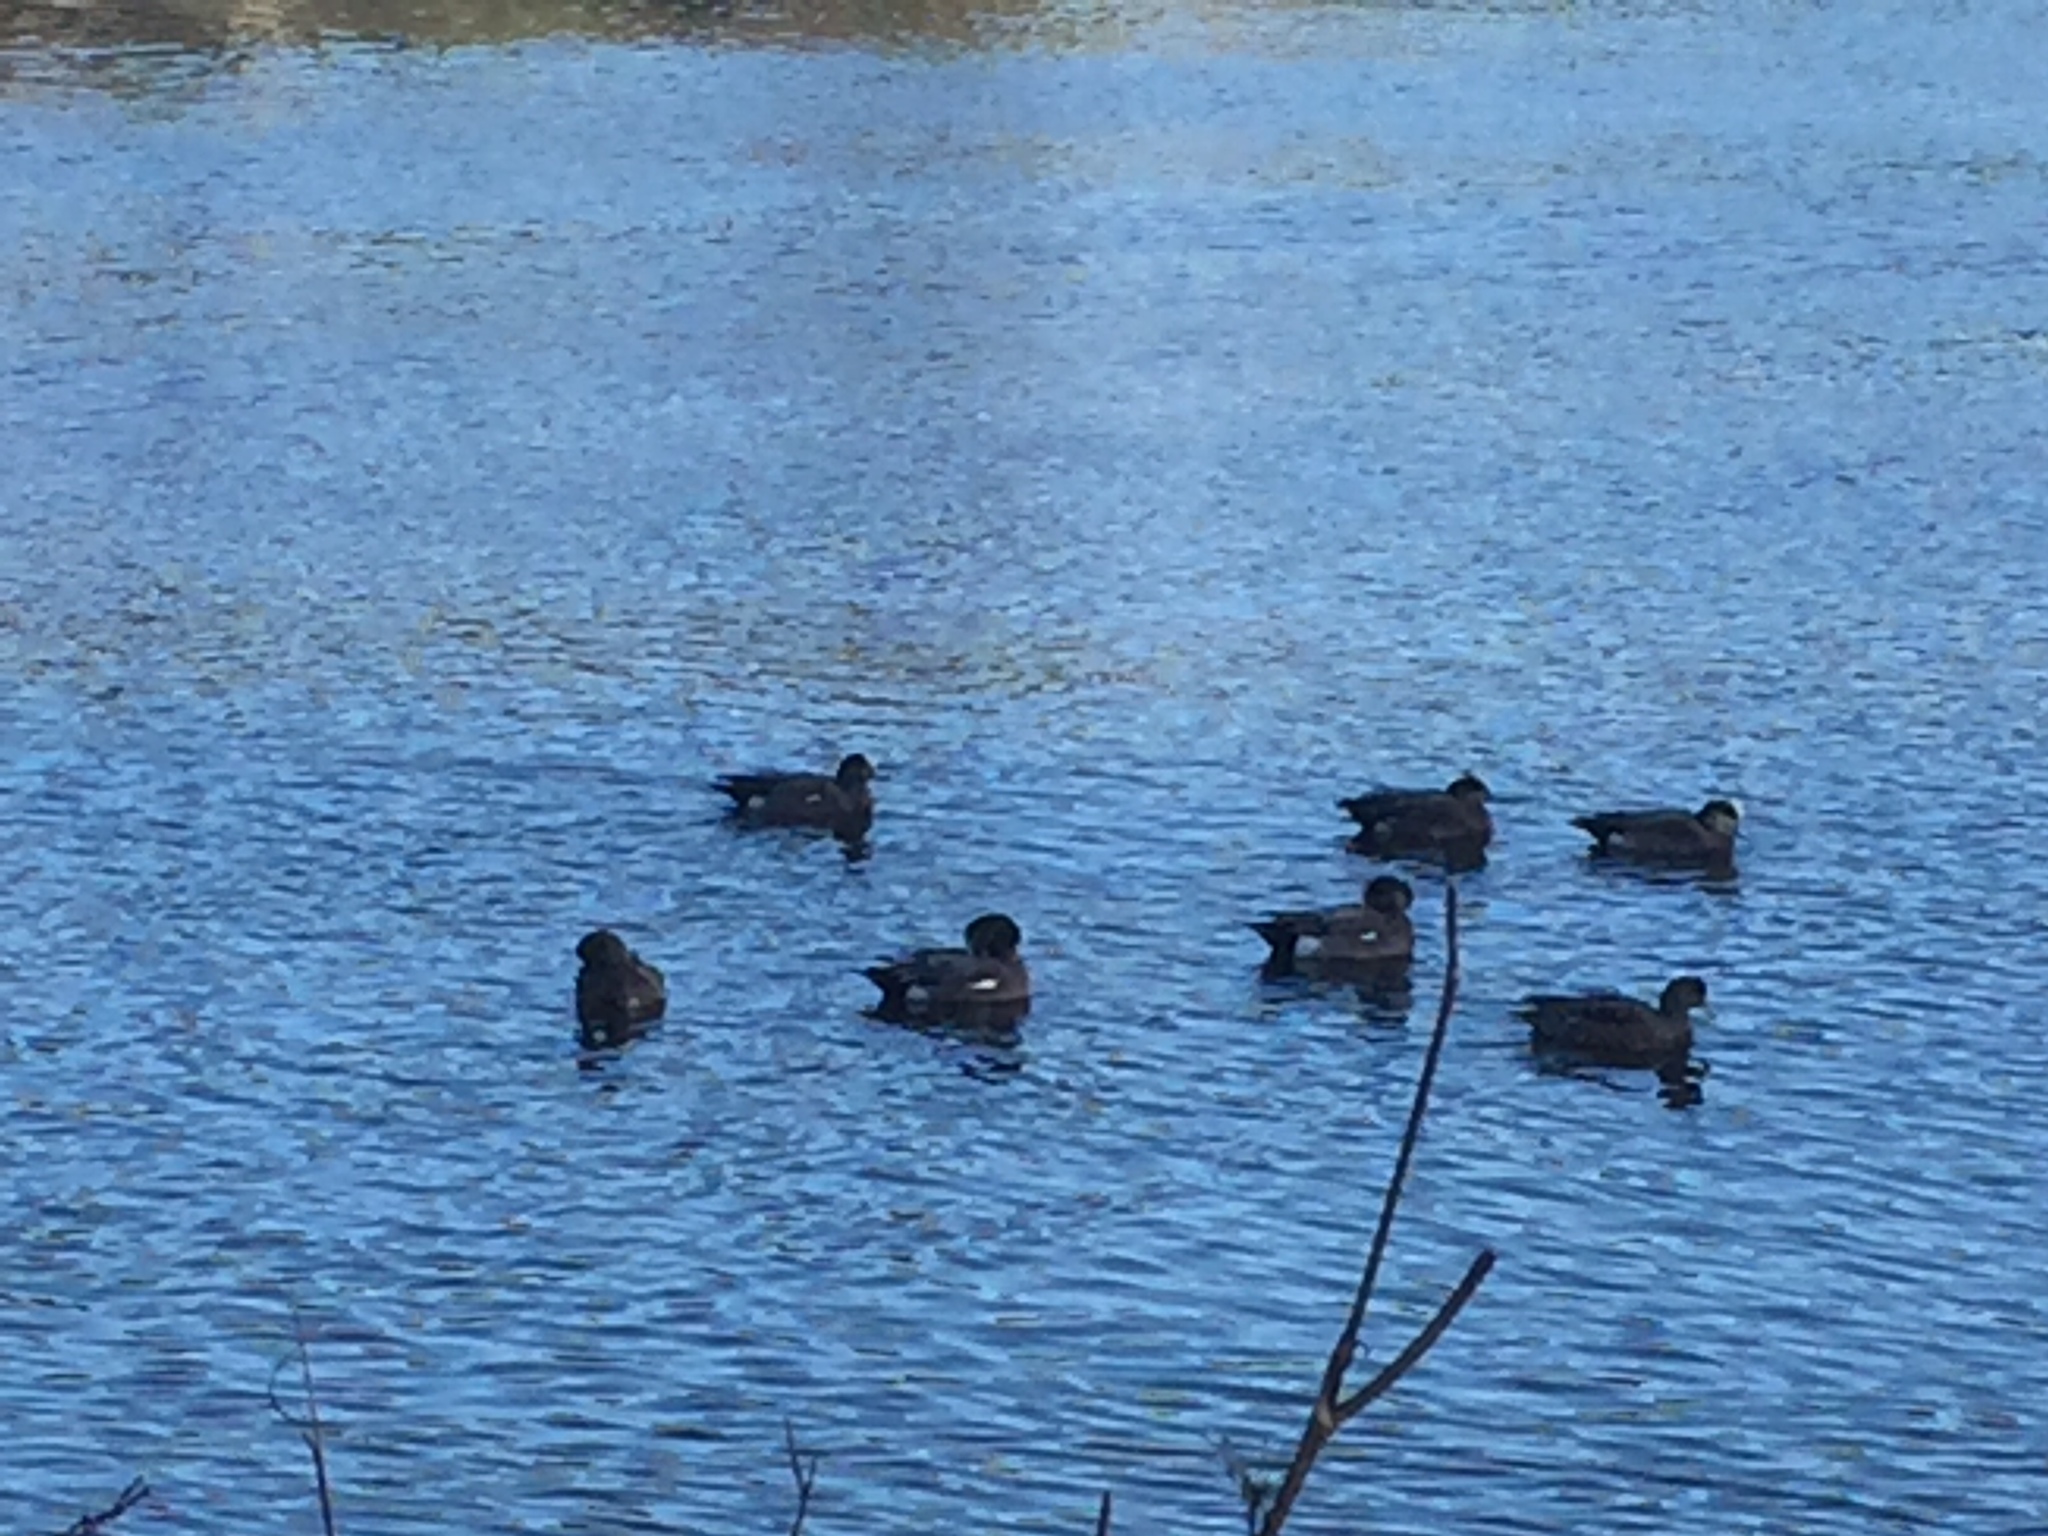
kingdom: Animalia
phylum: Chordata
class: Aves
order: Anseriformes
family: Anatidae
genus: Mareca
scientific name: Mareca americana
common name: American wigeon
